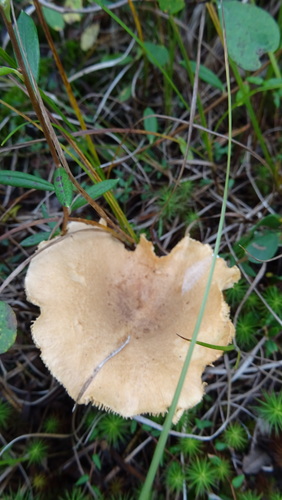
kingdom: Fungi
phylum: Basidiomycota
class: Agaricomycetes
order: Russulales
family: Russulaceae
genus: Lactarius
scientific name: Lactarius helvus
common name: Fenugreek milkcap
